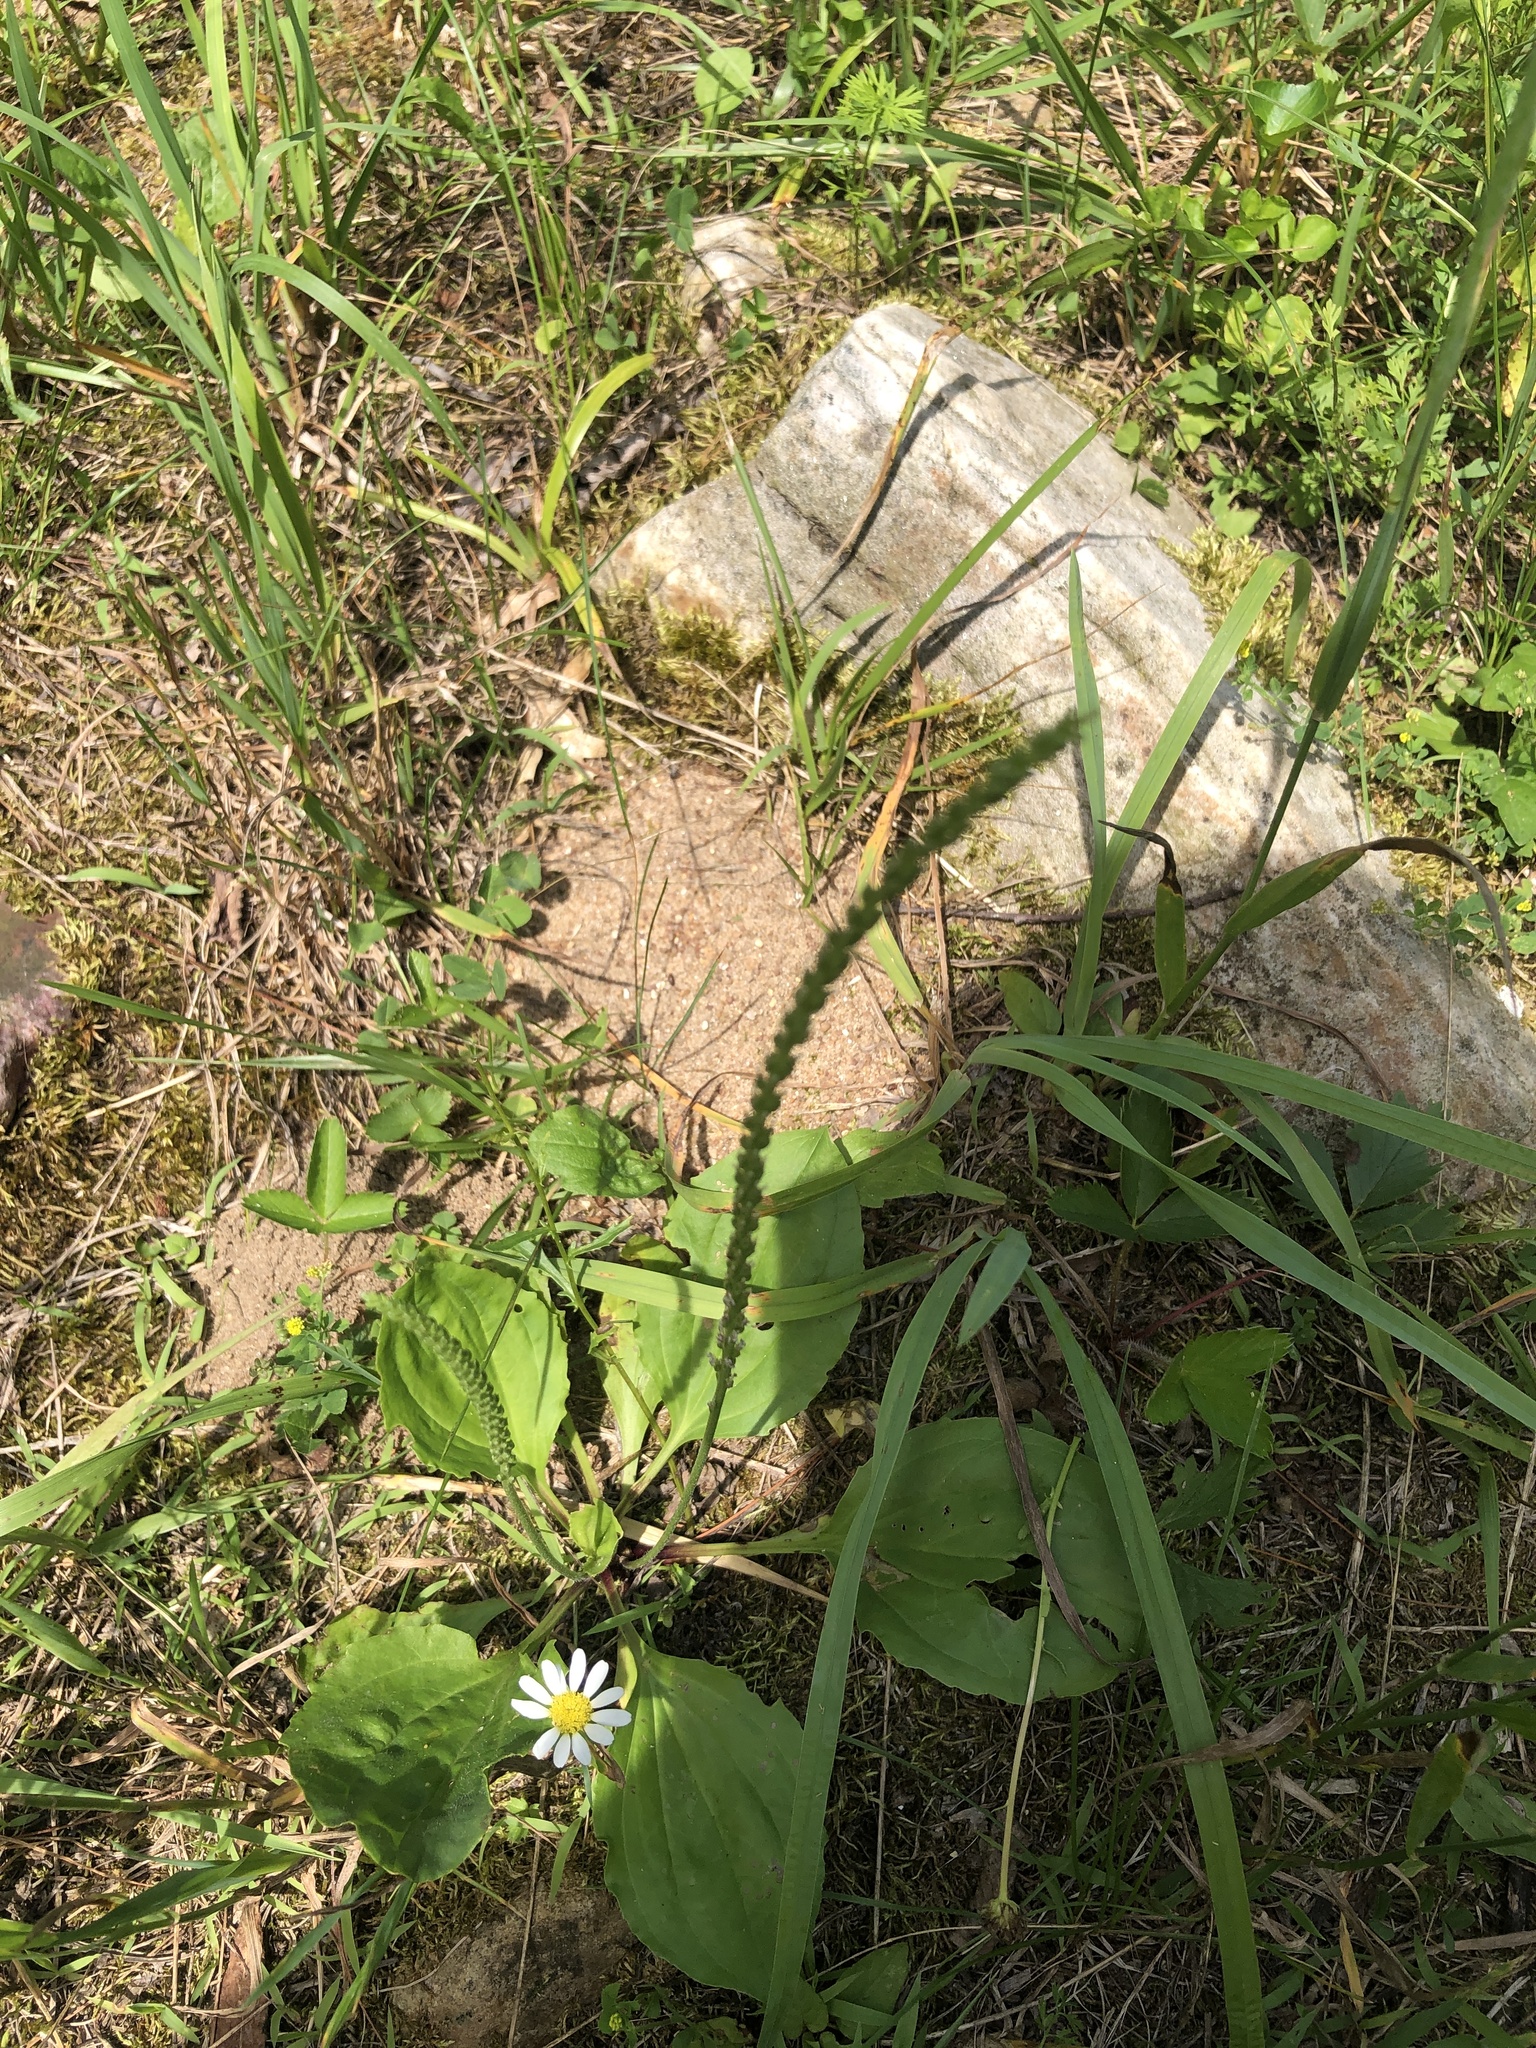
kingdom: Plantae
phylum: Tracheophyta
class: Magnoliopsida
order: Lamiales
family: Plantaginaceae
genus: Plantago
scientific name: Plantago rugelii
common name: American plantain
